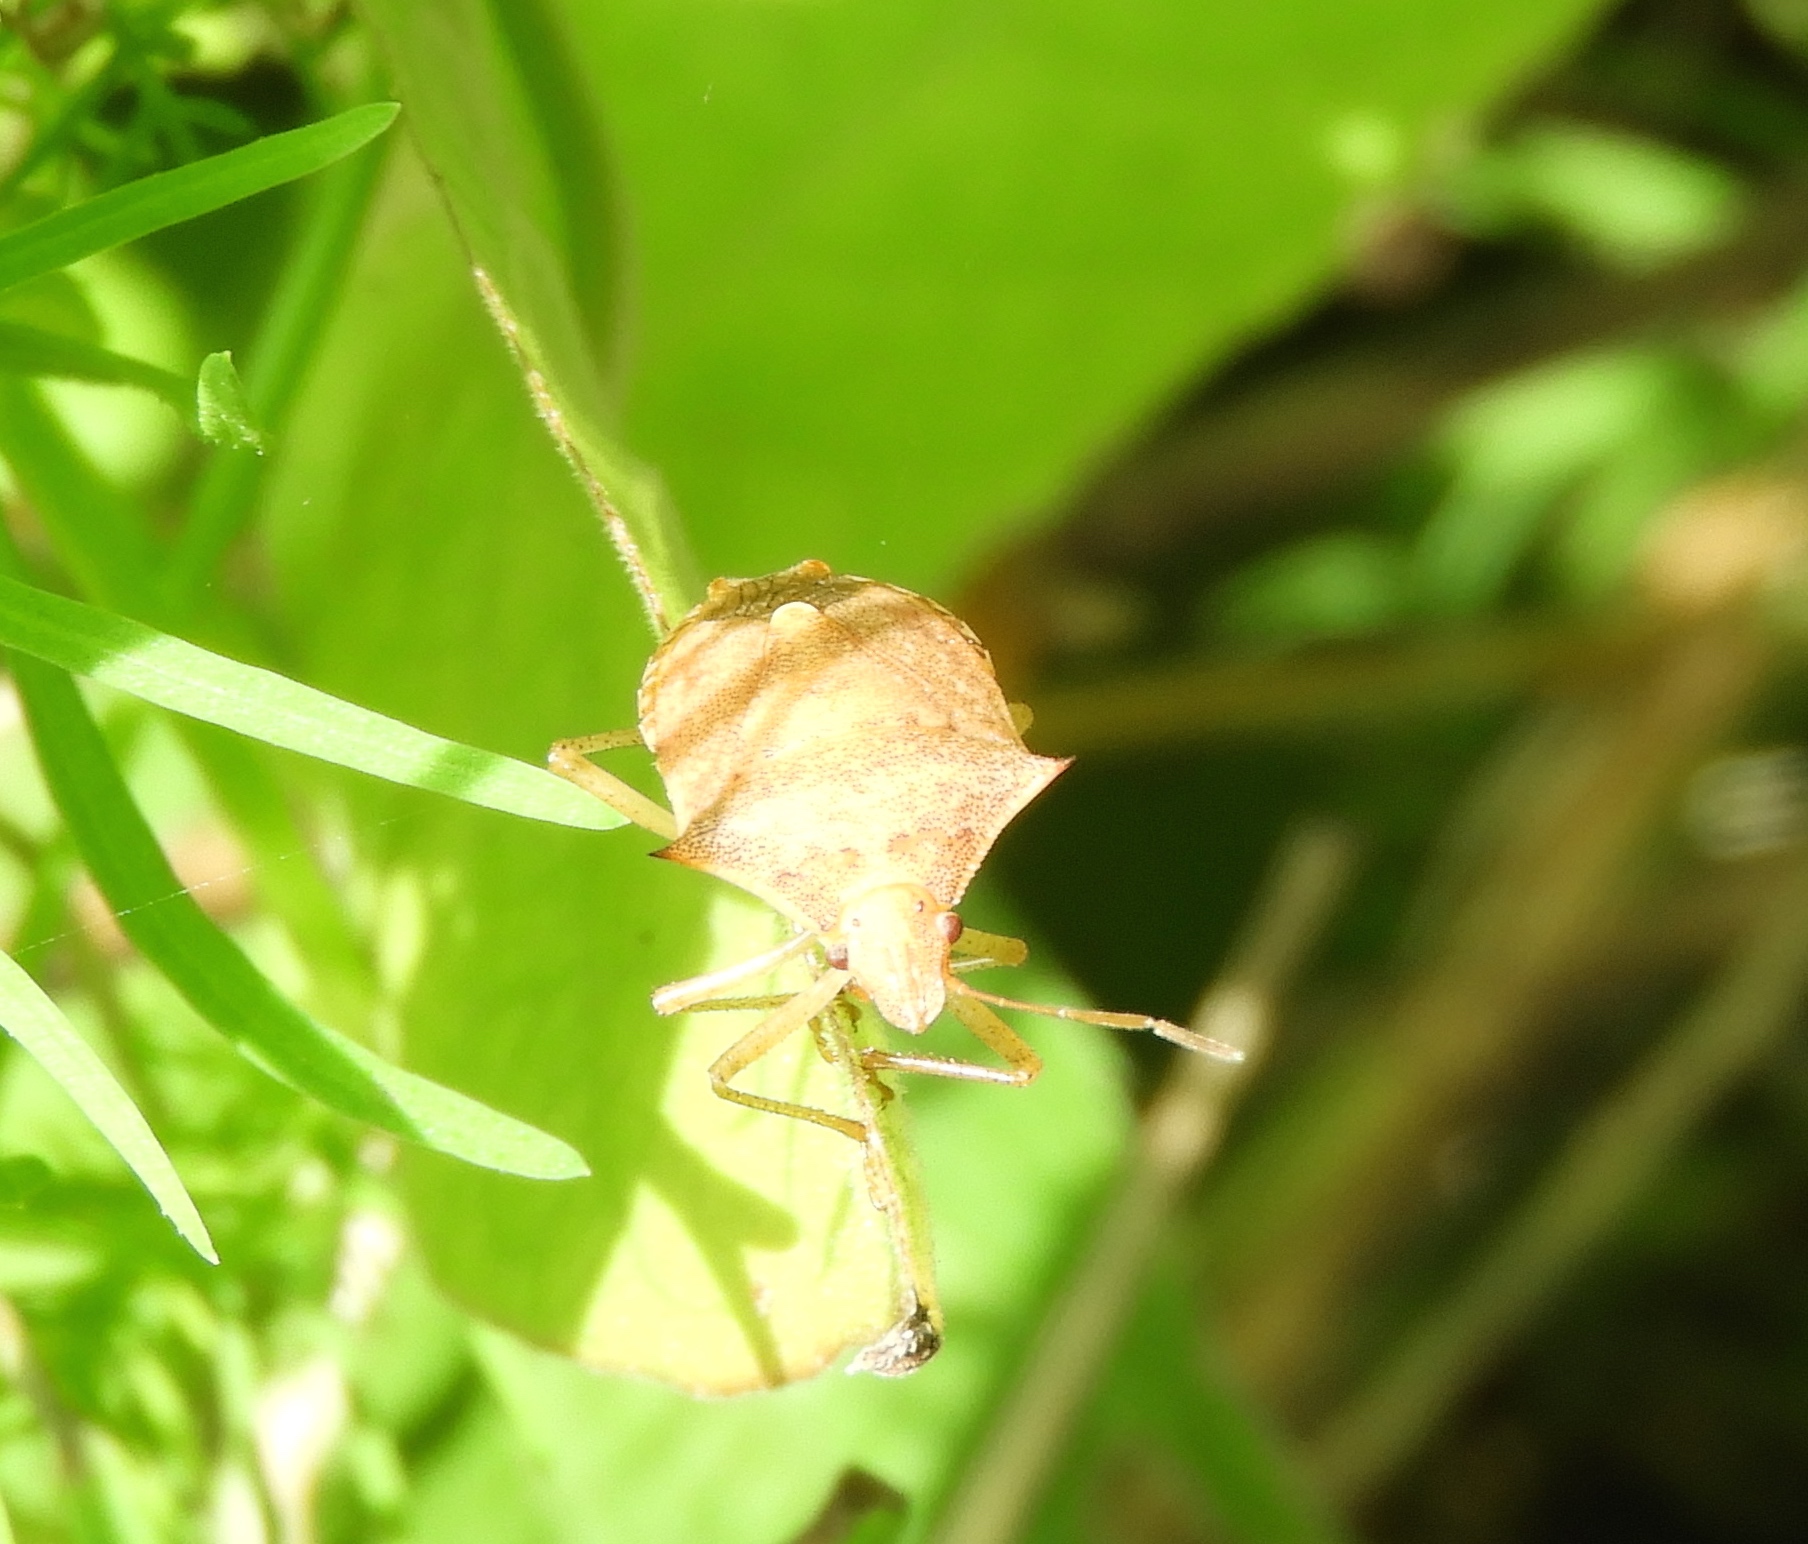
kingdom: Animalia
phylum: Arthropoda
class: Insecta
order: Hemiptera
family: Pentatomidae
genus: Euschistus
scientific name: Euschistus
